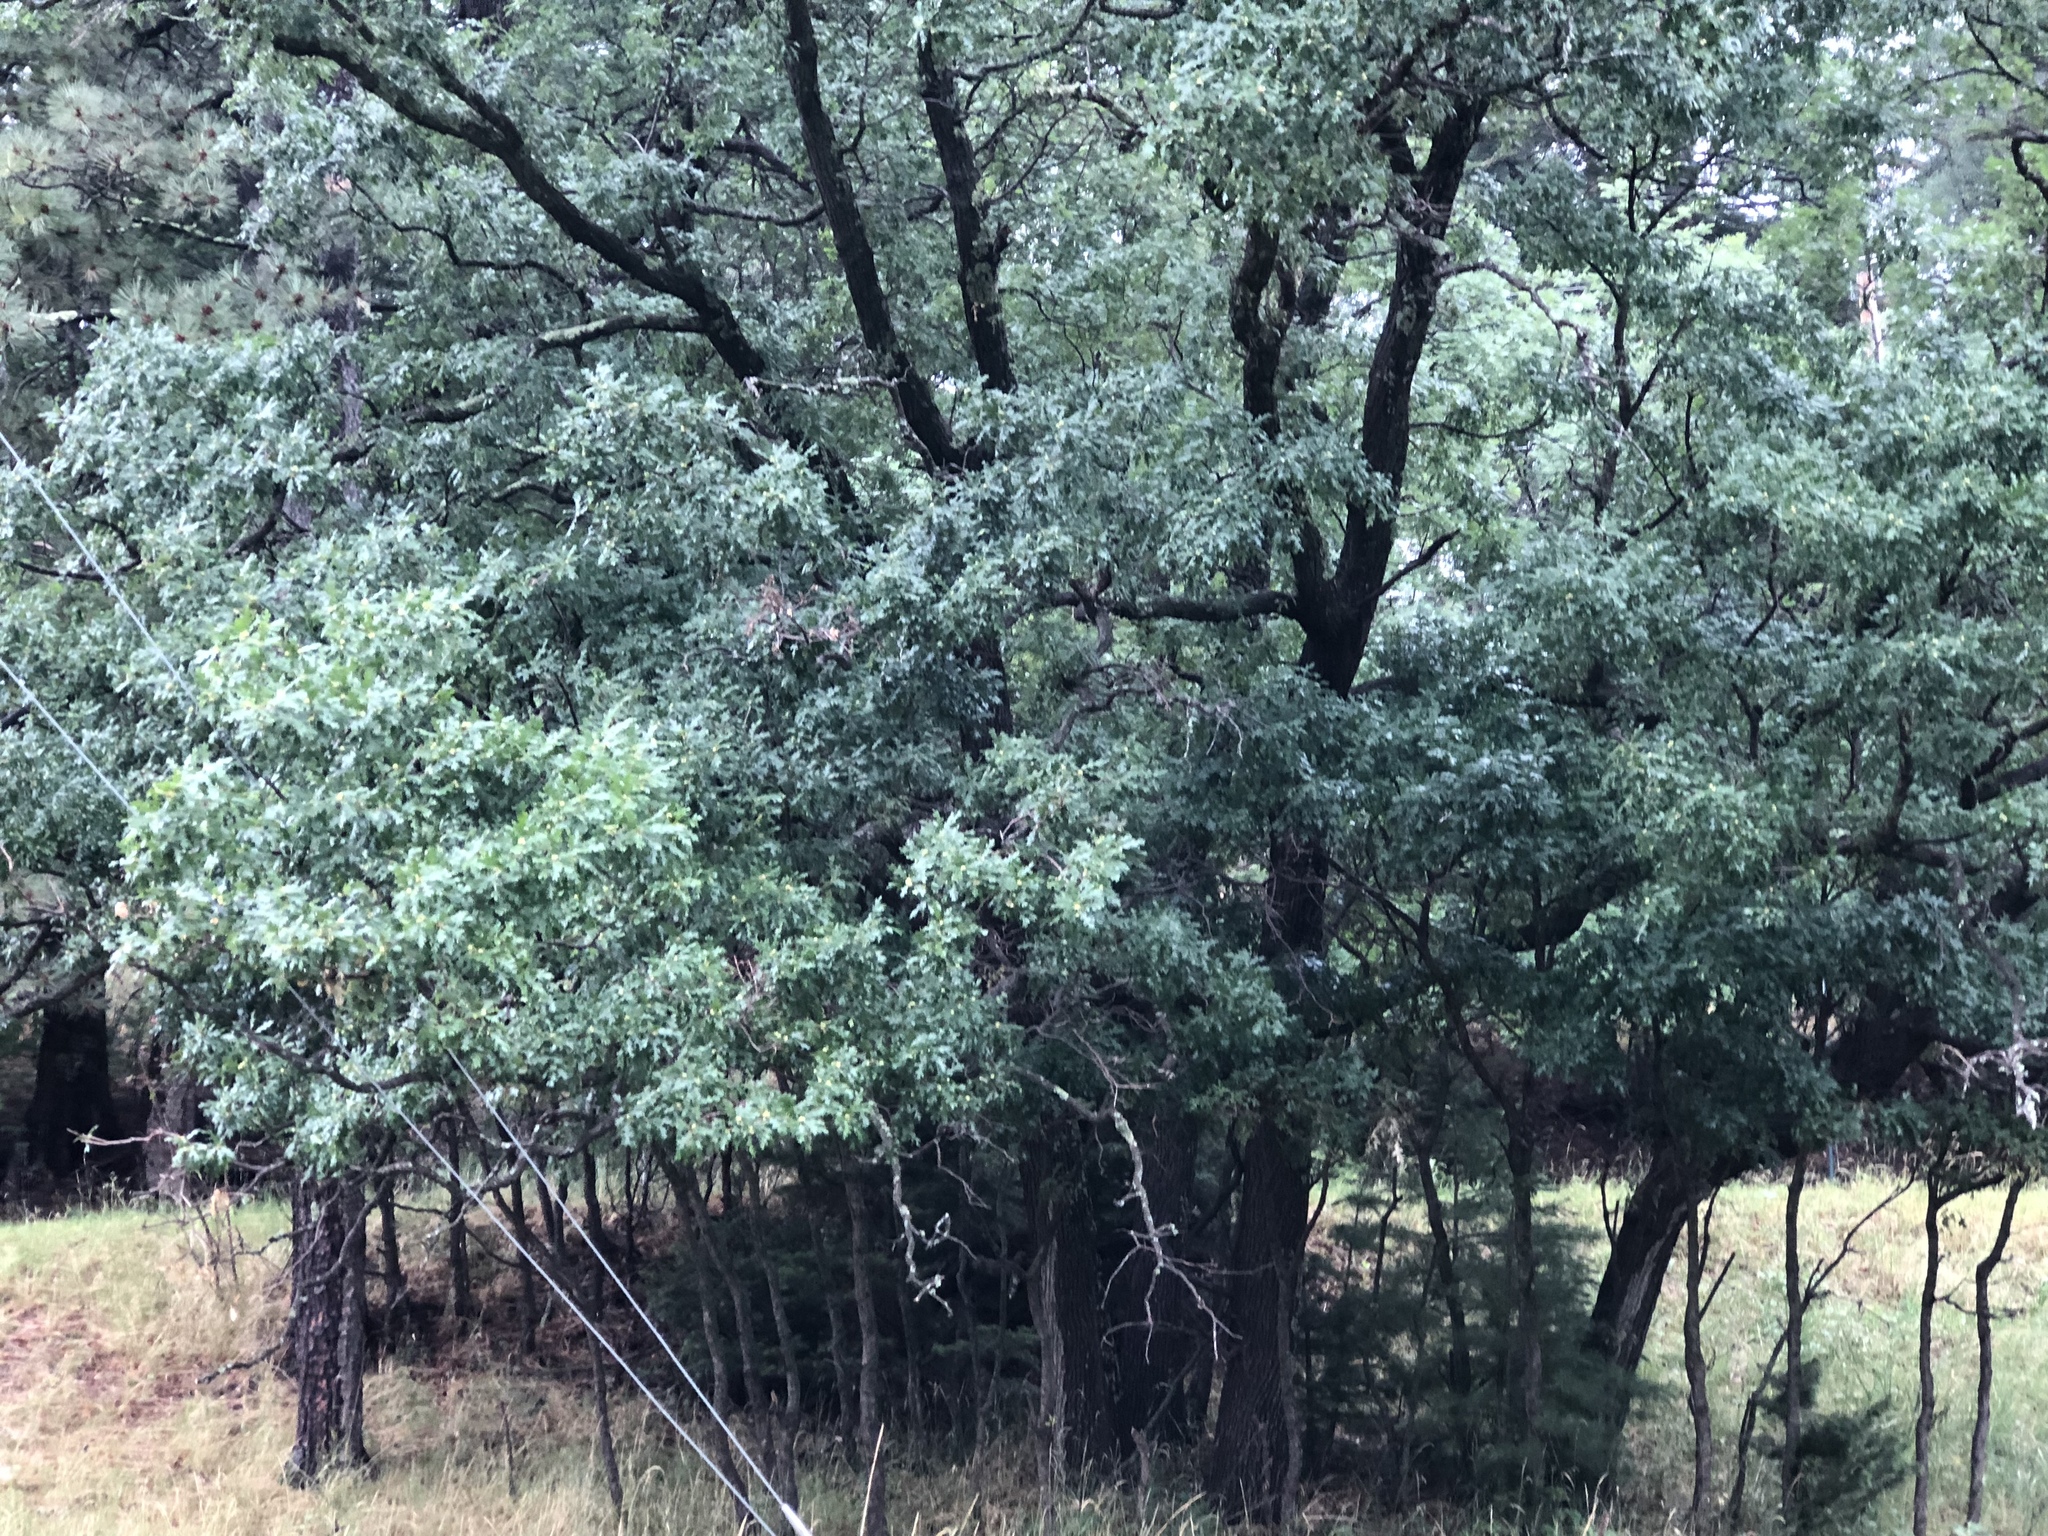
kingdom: Plantae
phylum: Tracheophyta
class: Magnoliopsida
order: Fagales
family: Fagaceae
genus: Quercus
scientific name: Quercus gambelii
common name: Gambel oak
